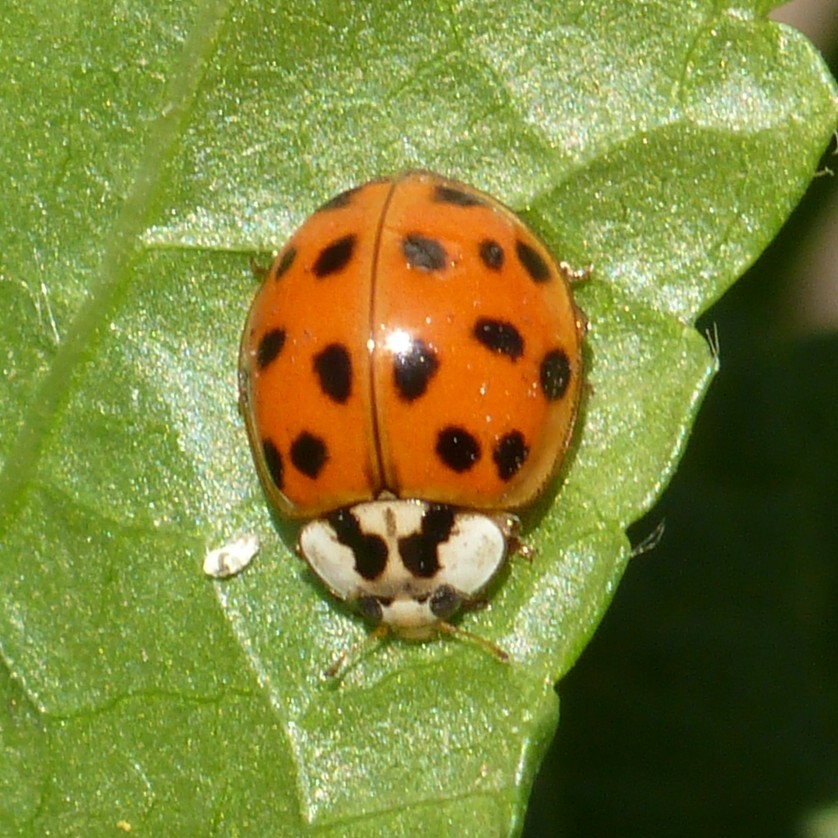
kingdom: Animalia
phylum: Arthropoda
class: Insecta
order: Coleoptera
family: Coccinellidae
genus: Harmonia
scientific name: Harmonia axyridis
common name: Harlequin ladybird
